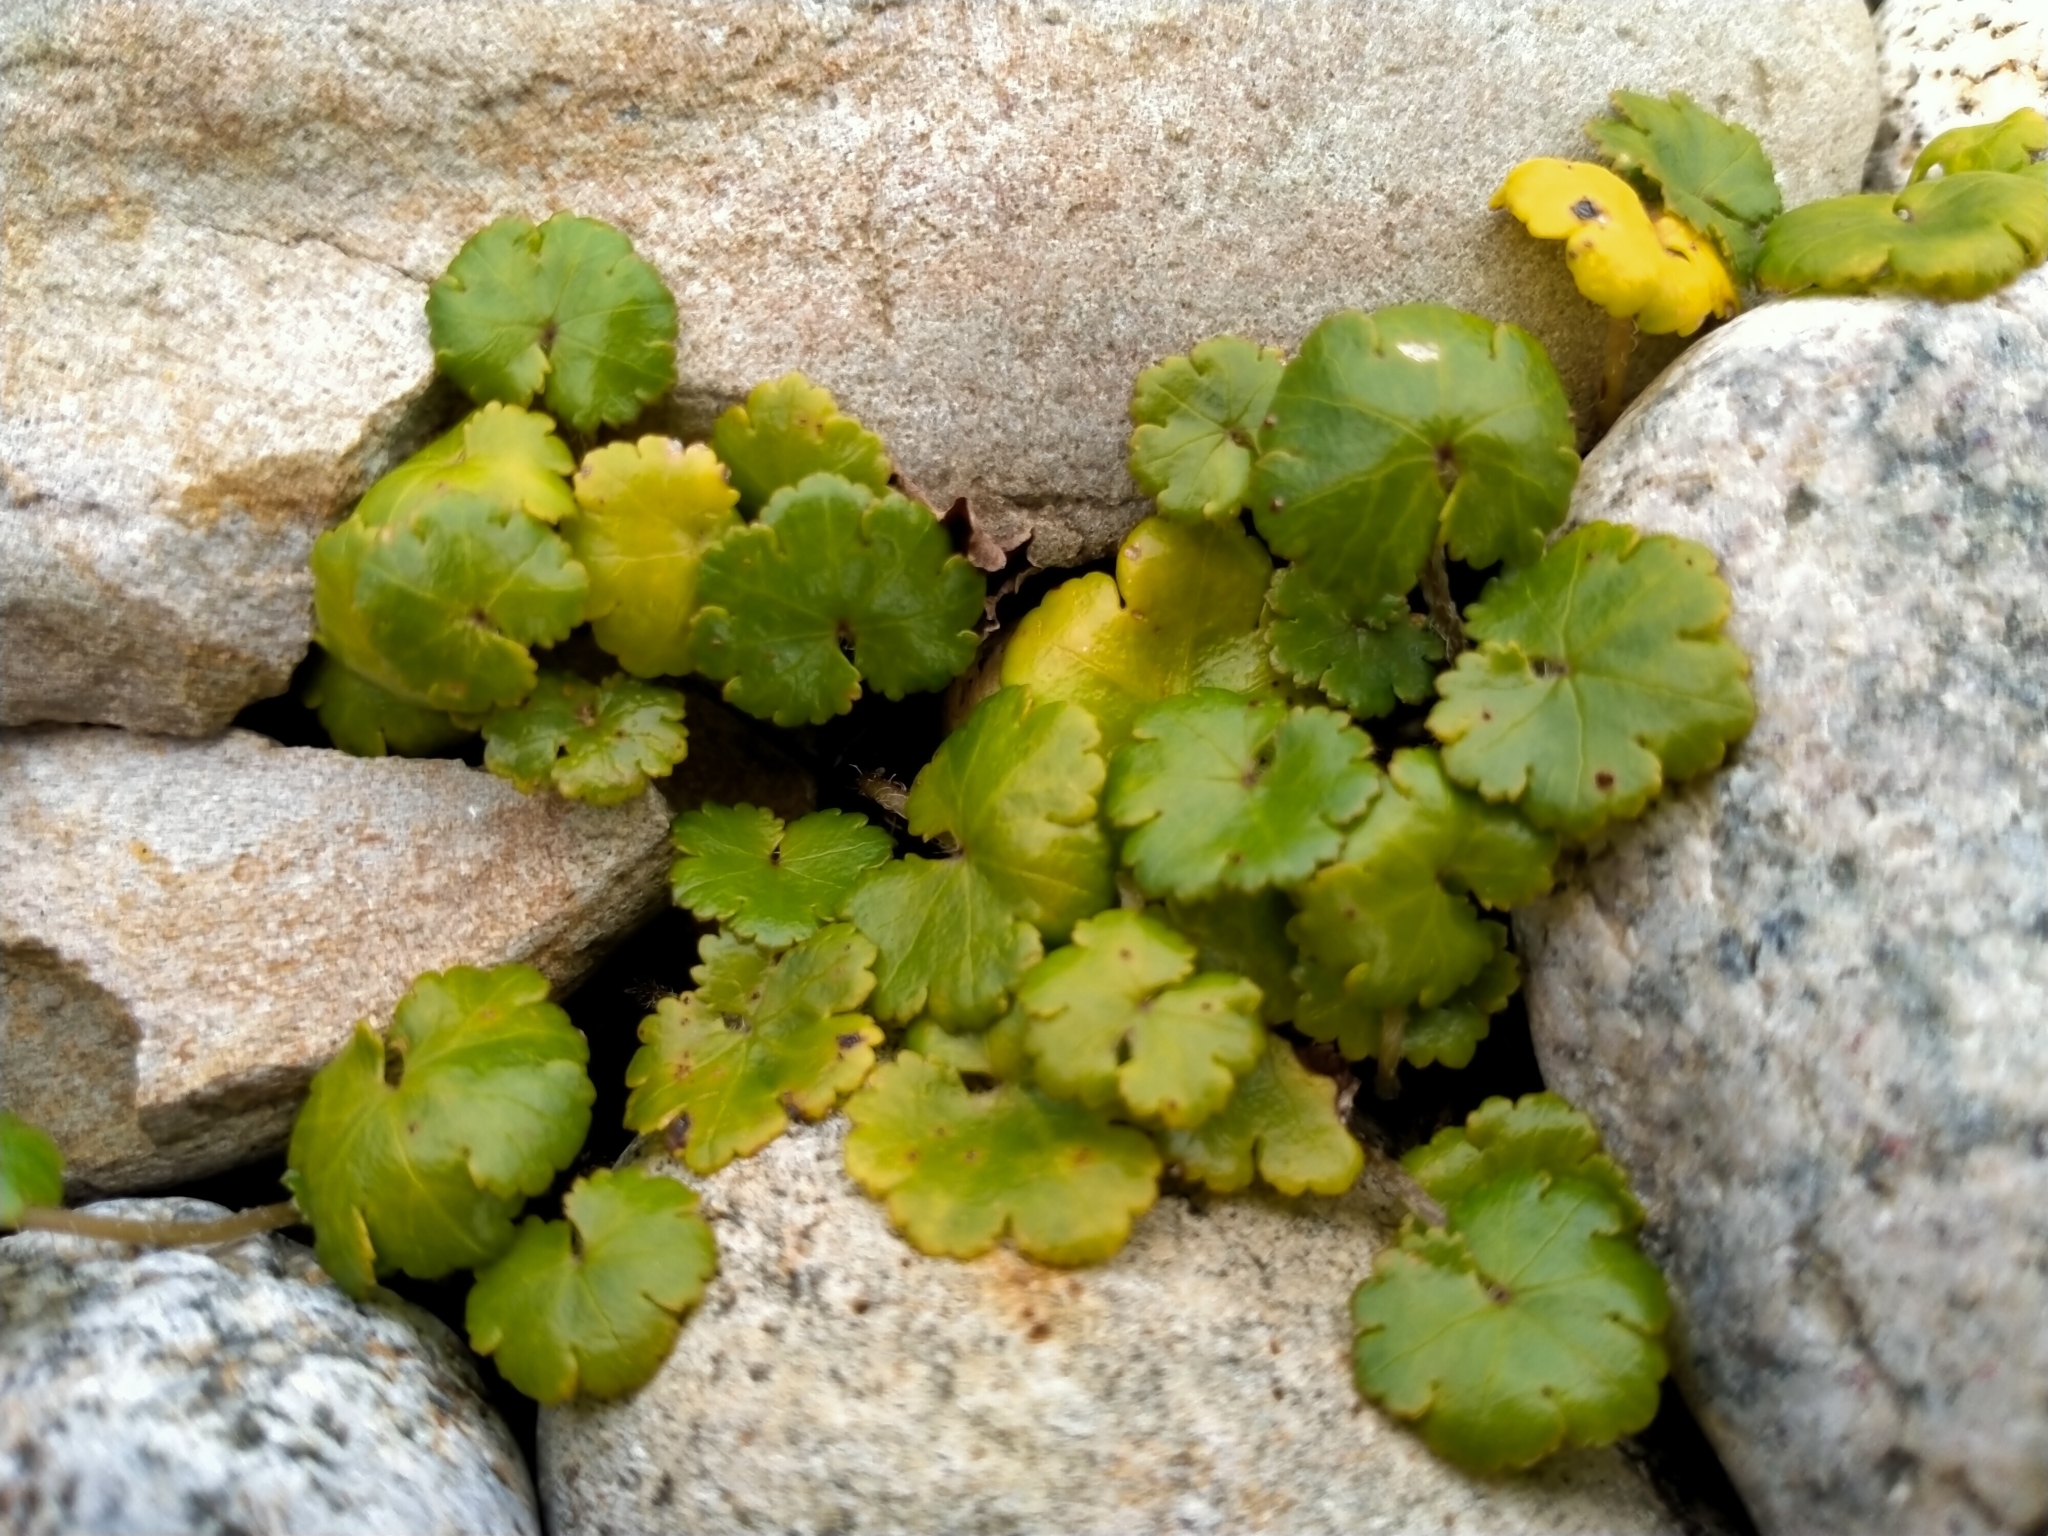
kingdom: Plantae
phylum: Tracheophyta
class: Magnoliopsida
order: Apiales
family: Araliaceae
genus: Hydrocotyle
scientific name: Hydrocotyle novae-zeelandiae
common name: New zealand pennywort
